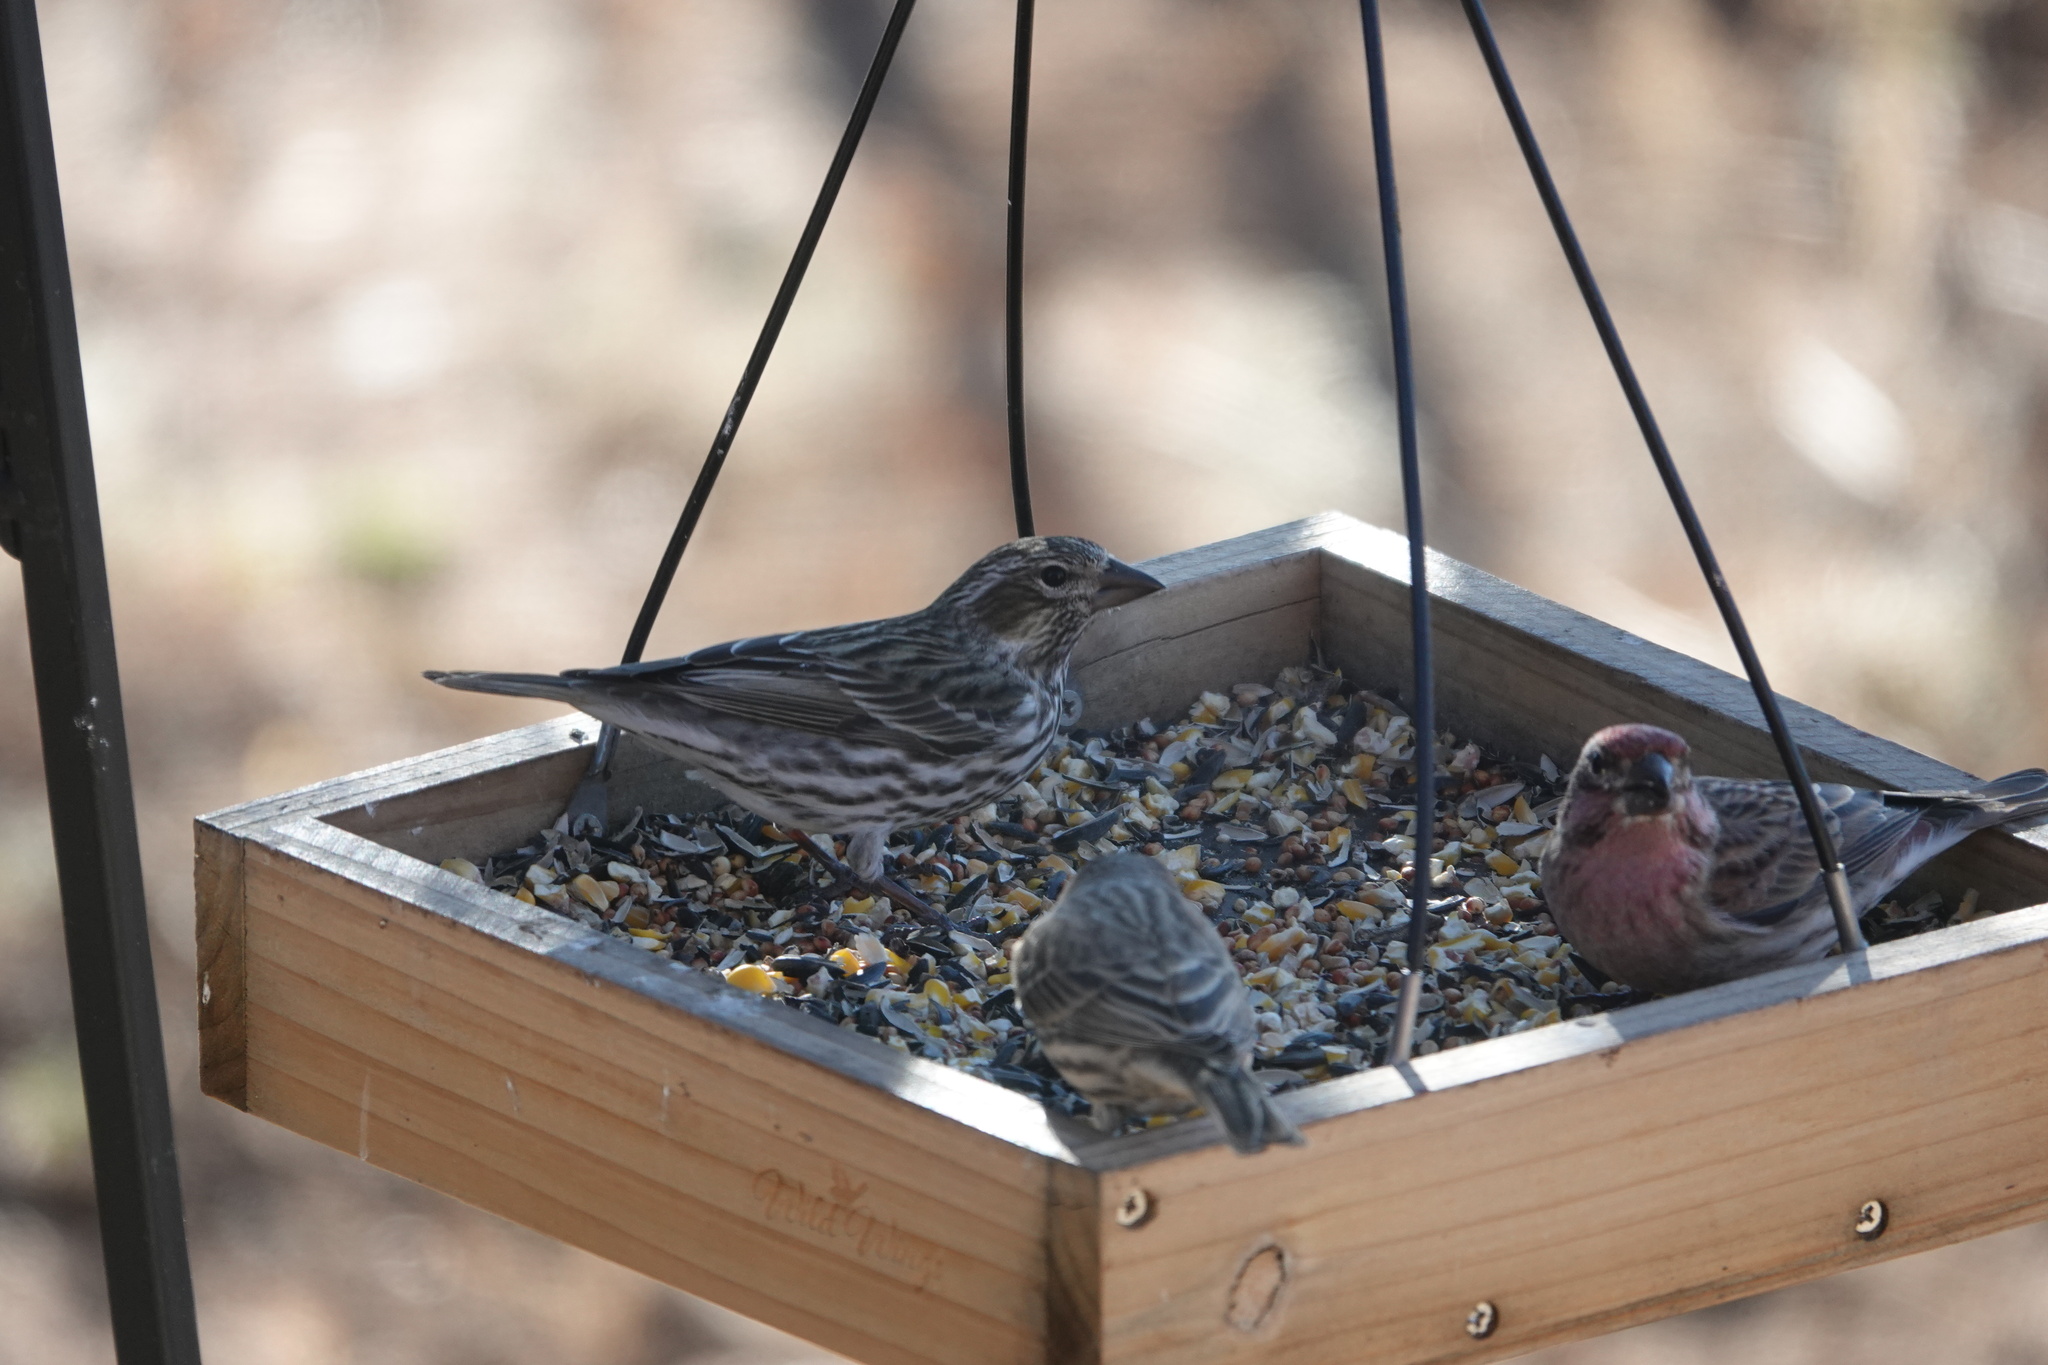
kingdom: Animalia
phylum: Chordata
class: Aves
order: Passeriformes
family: Fringillidae
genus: Haemorhous
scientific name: Haemorhous cassinii
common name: Cassin's finch
